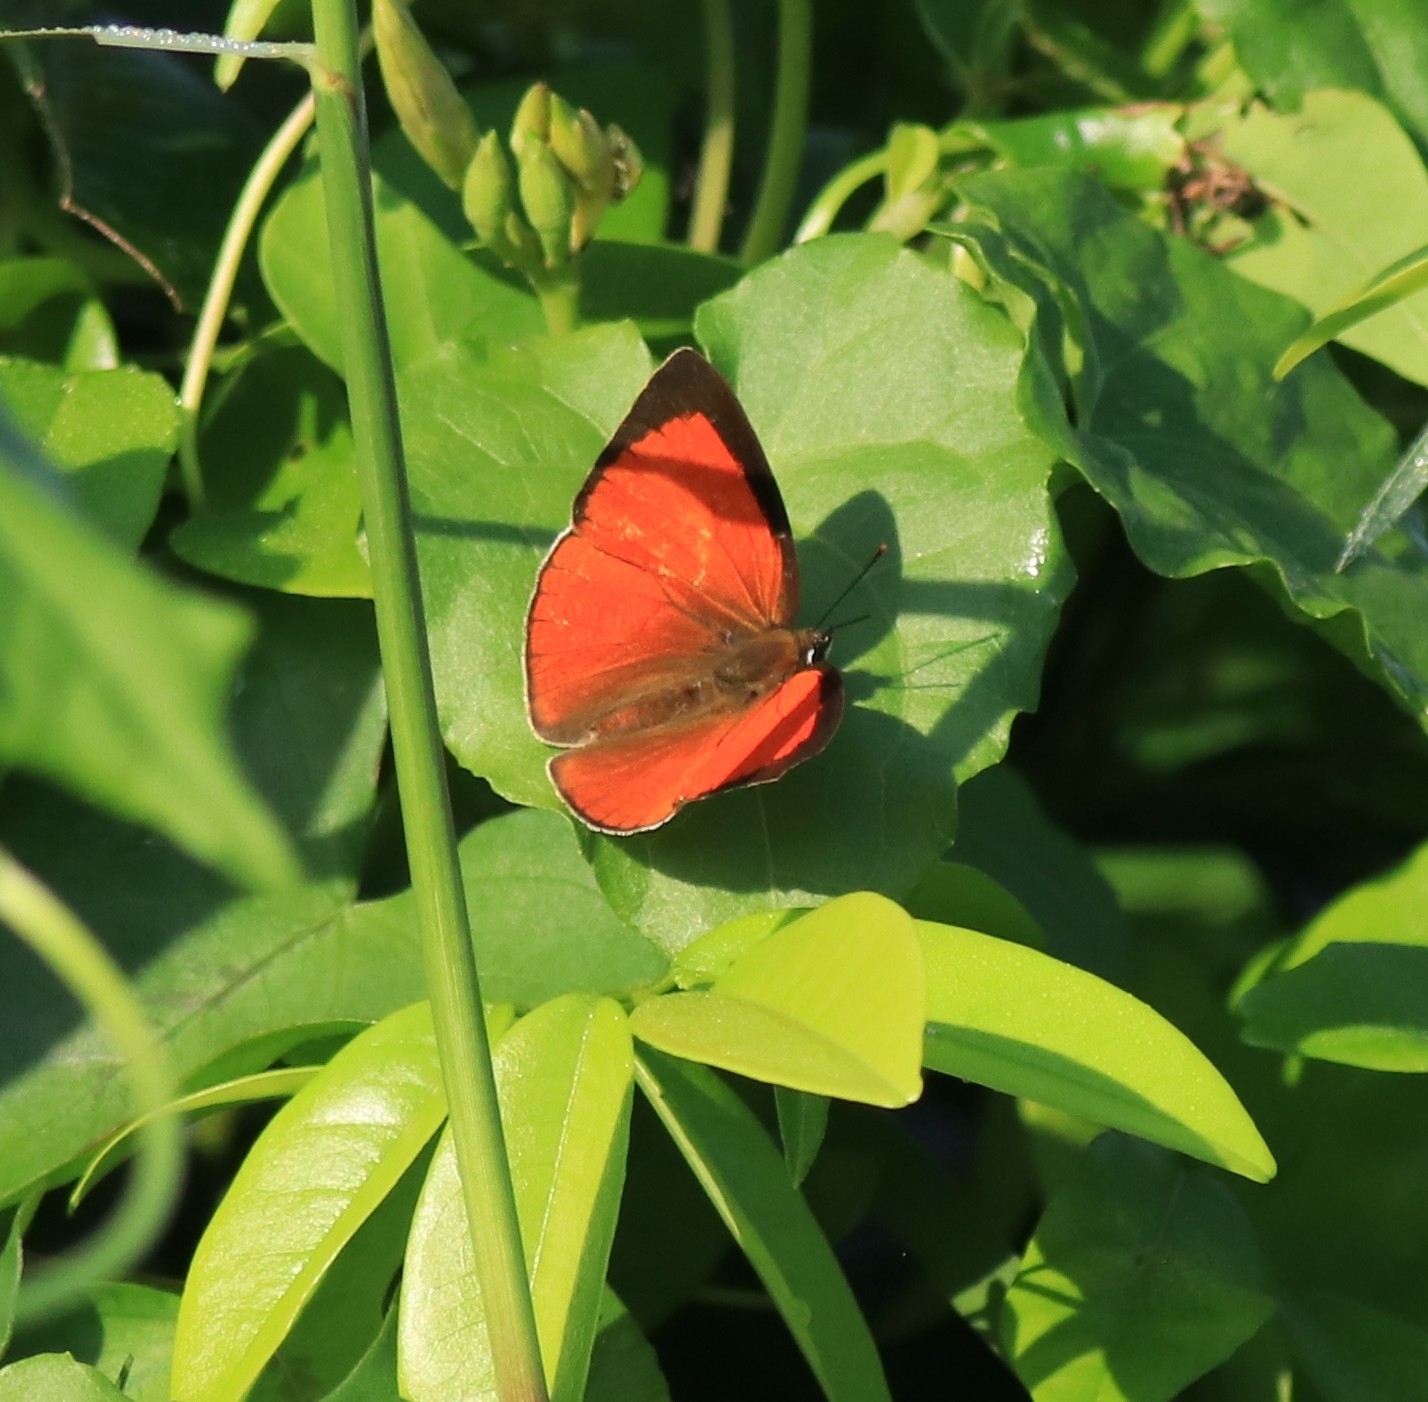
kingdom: Animalia
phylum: Arthropoda
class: Insecta
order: Lepidoptera
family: Lycaenidae
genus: Curetis
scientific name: Curetis thetis
